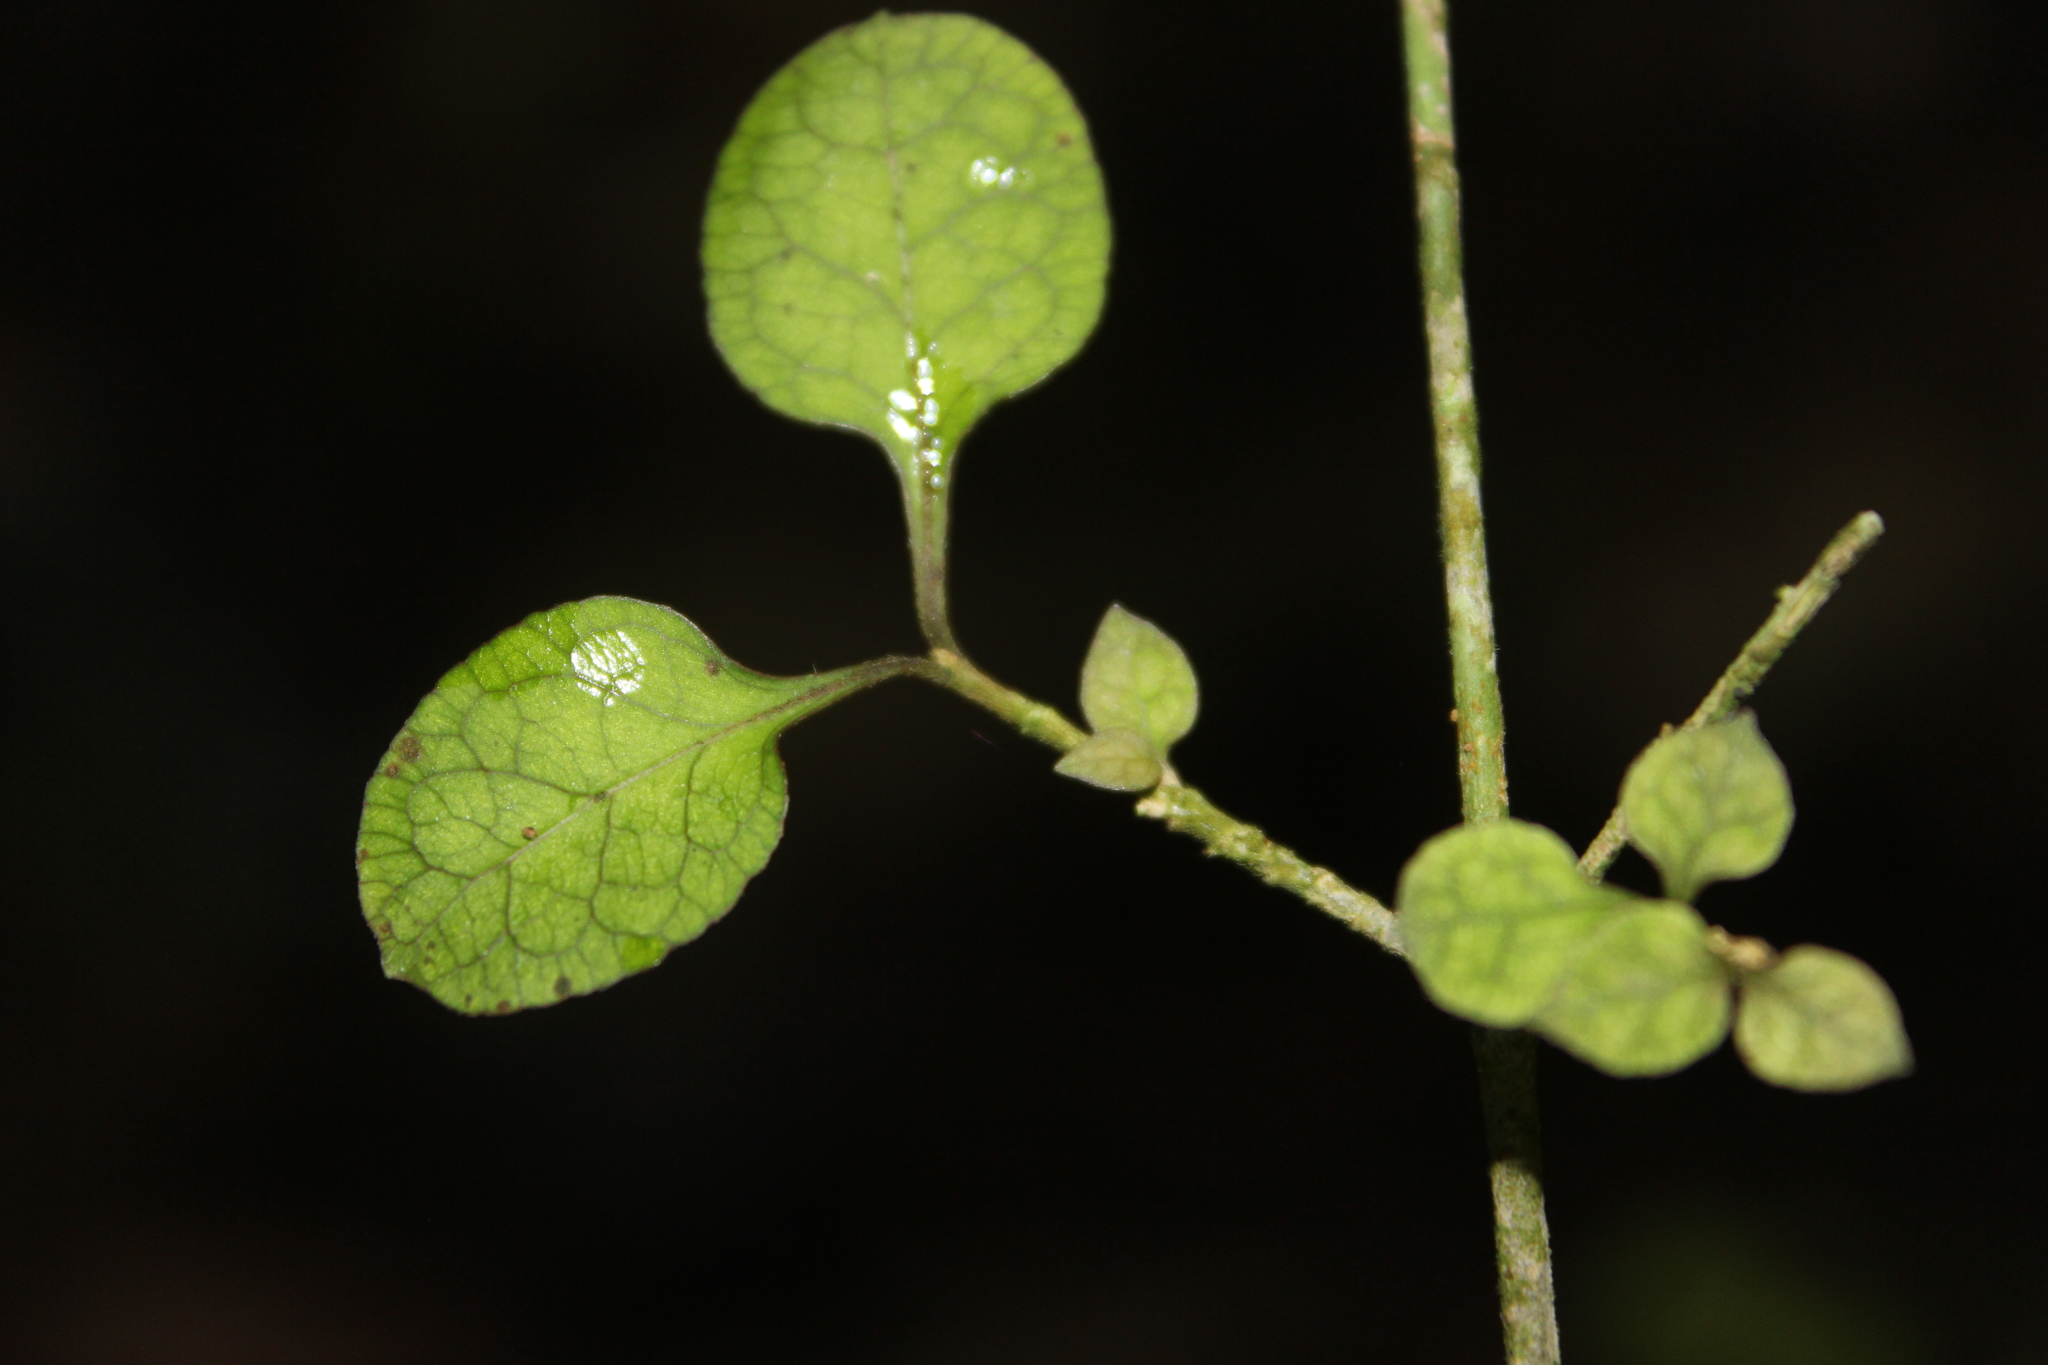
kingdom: Plantae
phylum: Tracheophyta
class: Magnoliopsida
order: Gentianales
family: Rubiaceae
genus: Coprosma
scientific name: Coprosma areolata
